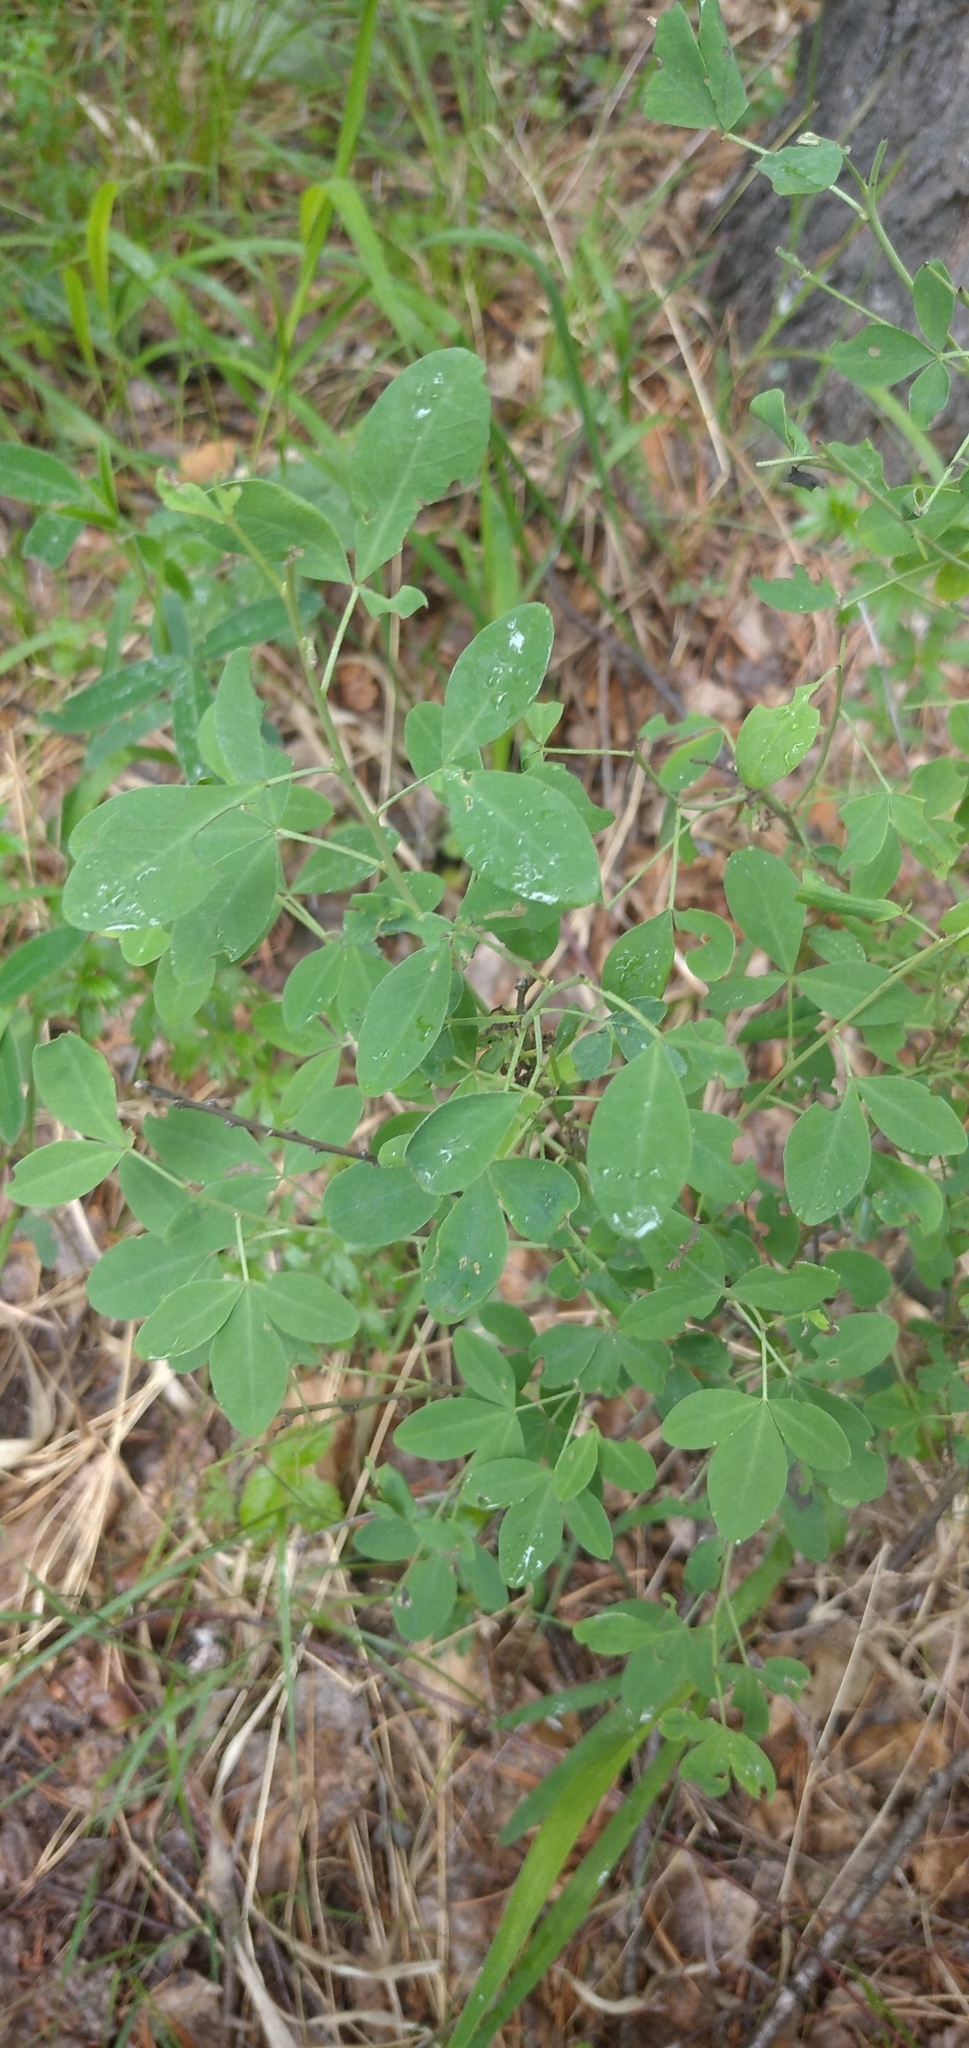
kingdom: Plantae
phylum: Tracheophyta
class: Magnoliopsida
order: Fabales
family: Fabaceae
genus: Chamaecytisus
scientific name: Chamaecytisus ruthenicus
